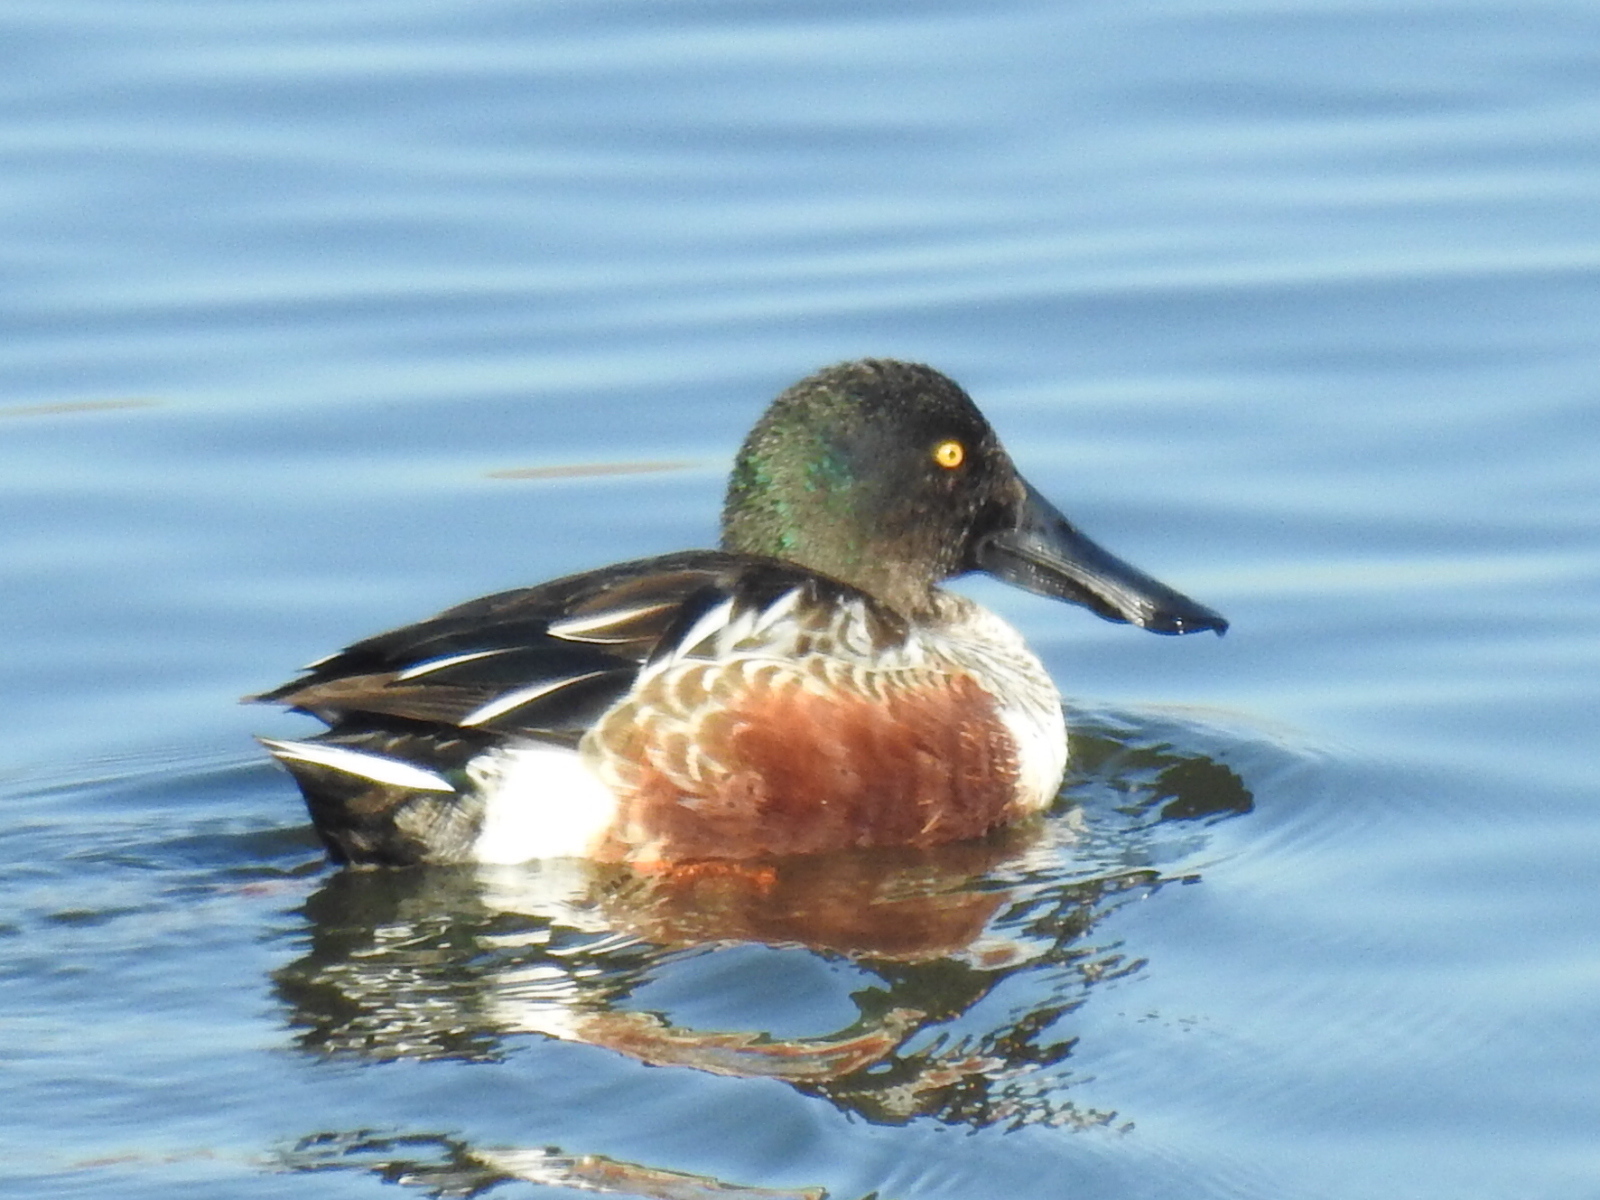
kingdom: Animalia
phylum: Chordata
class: Aves
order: Anseriformes
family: Anatidae
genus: Spatula
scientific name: Spatula clypeata
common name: Northern shoveler
